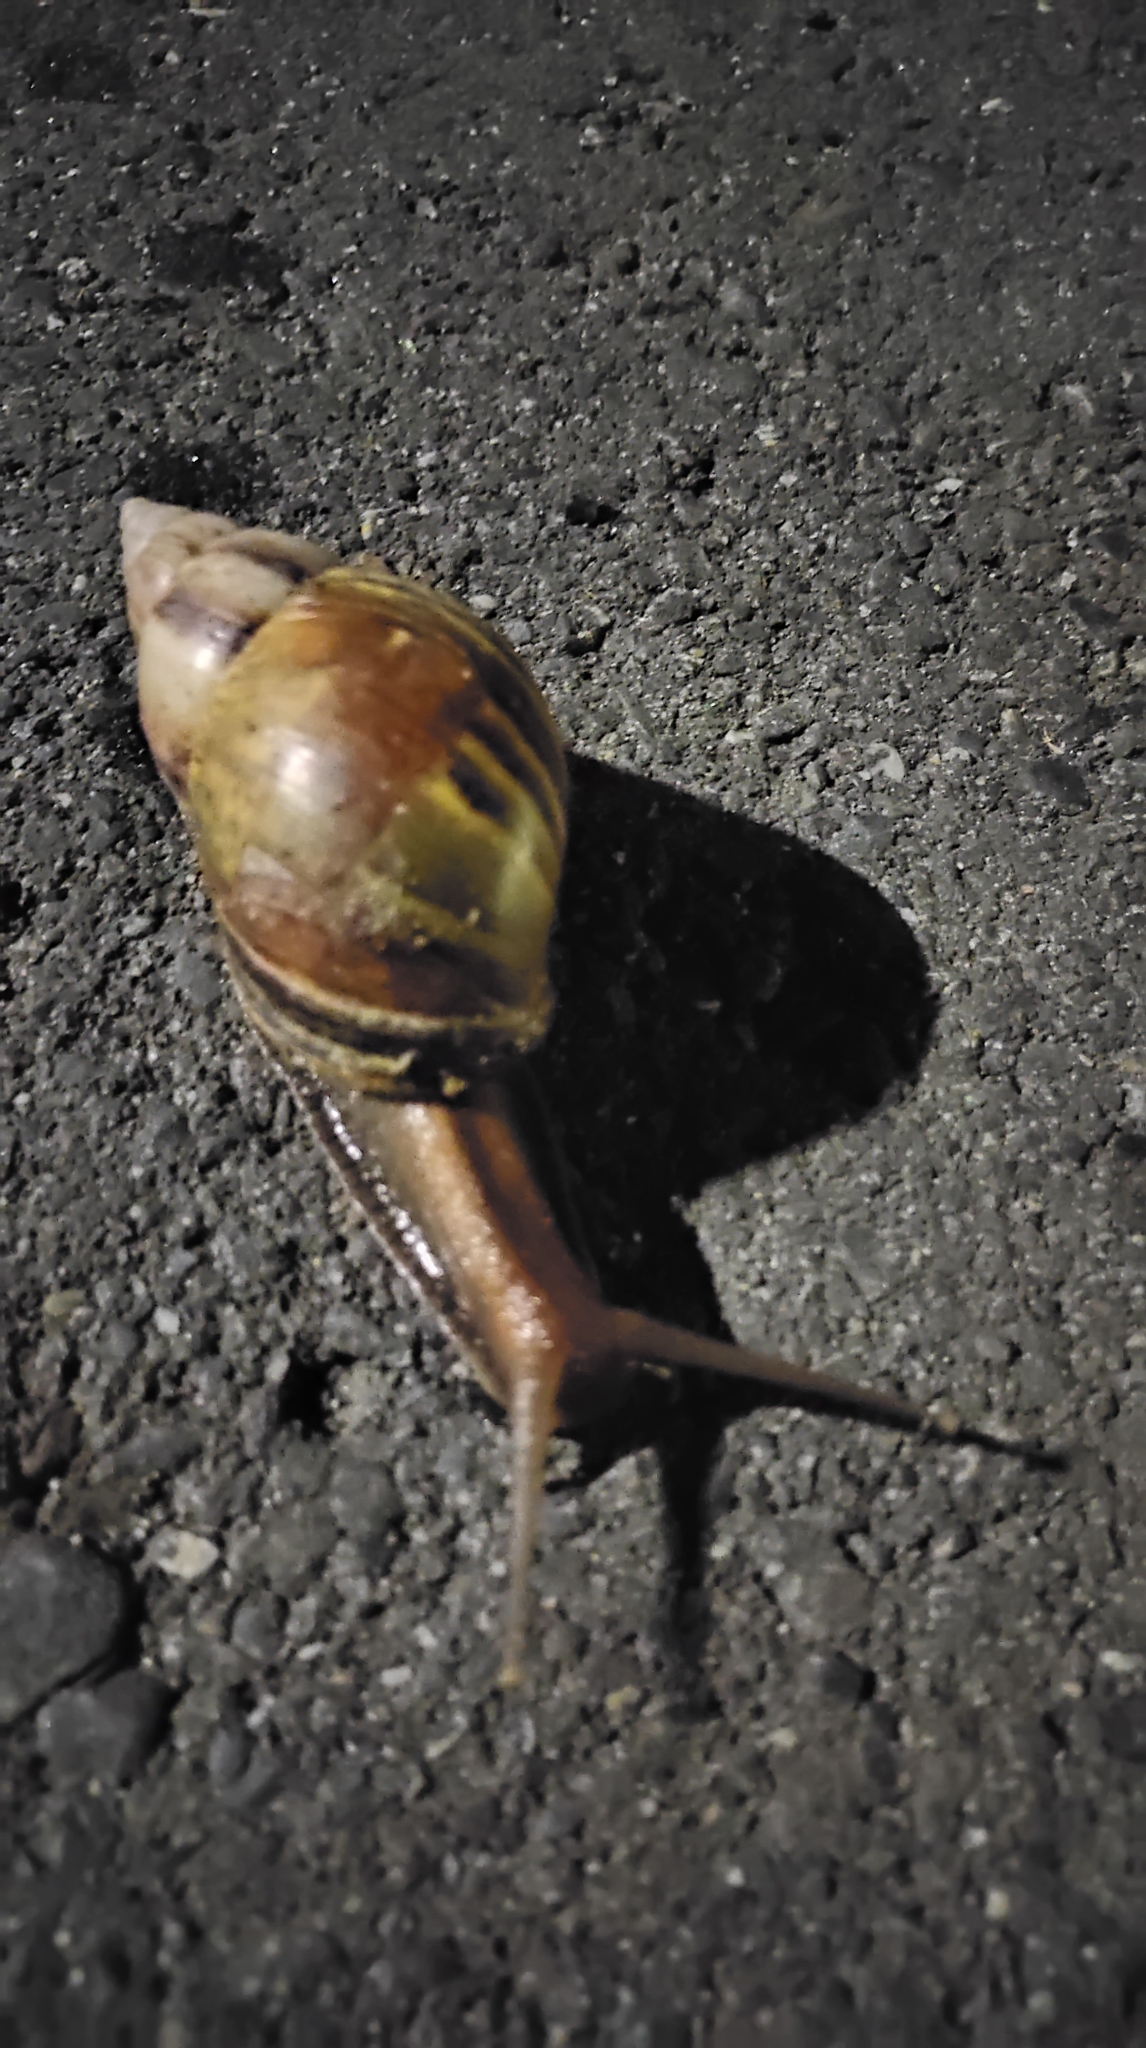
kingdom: Animalia
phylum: Mollusca
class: Gastropoda
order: Stylommatophora
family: Achatinidae
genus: Lissachatina
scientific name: Lissachatina fulica
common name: Giant african snail
